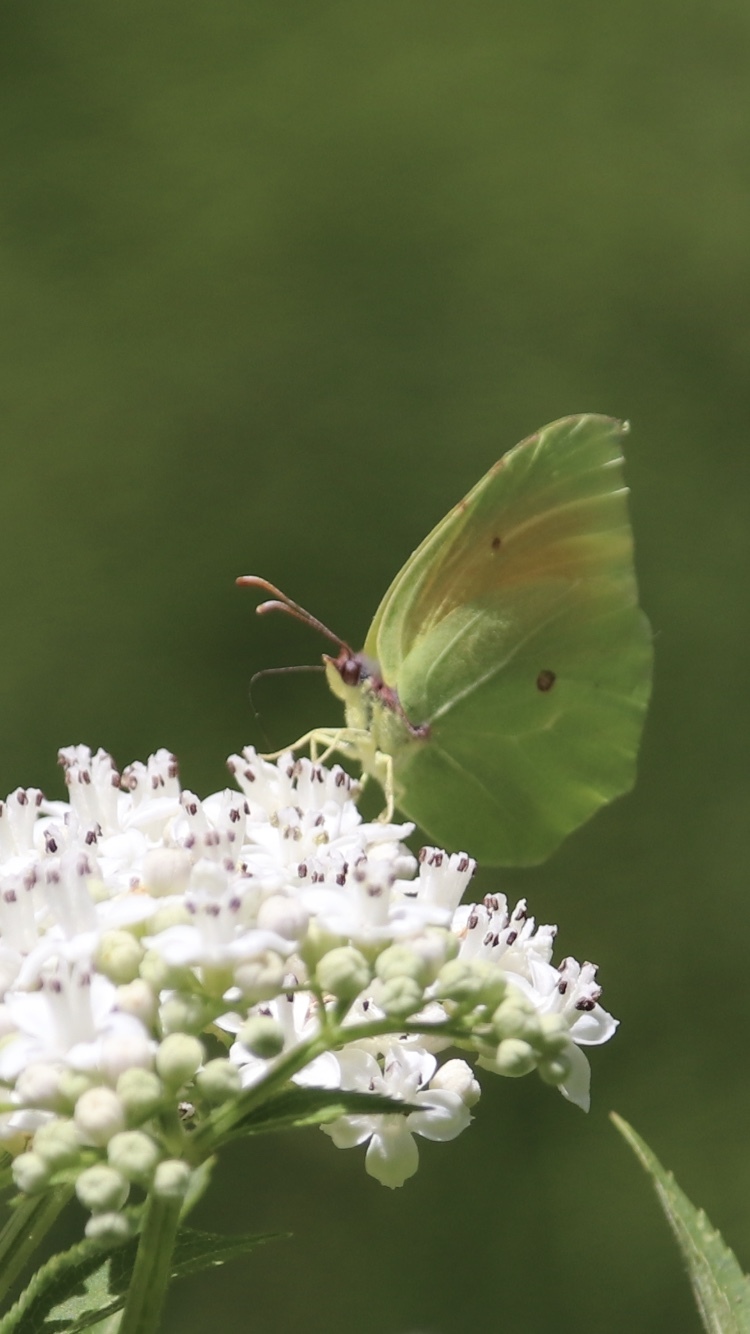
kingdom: Animalia
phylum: Arthropoda
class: Insecta
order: Lepidoptera
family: Pieridae
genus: Gonepteryx
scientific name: Gonepteryx cleopatra
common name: Cleopatra
